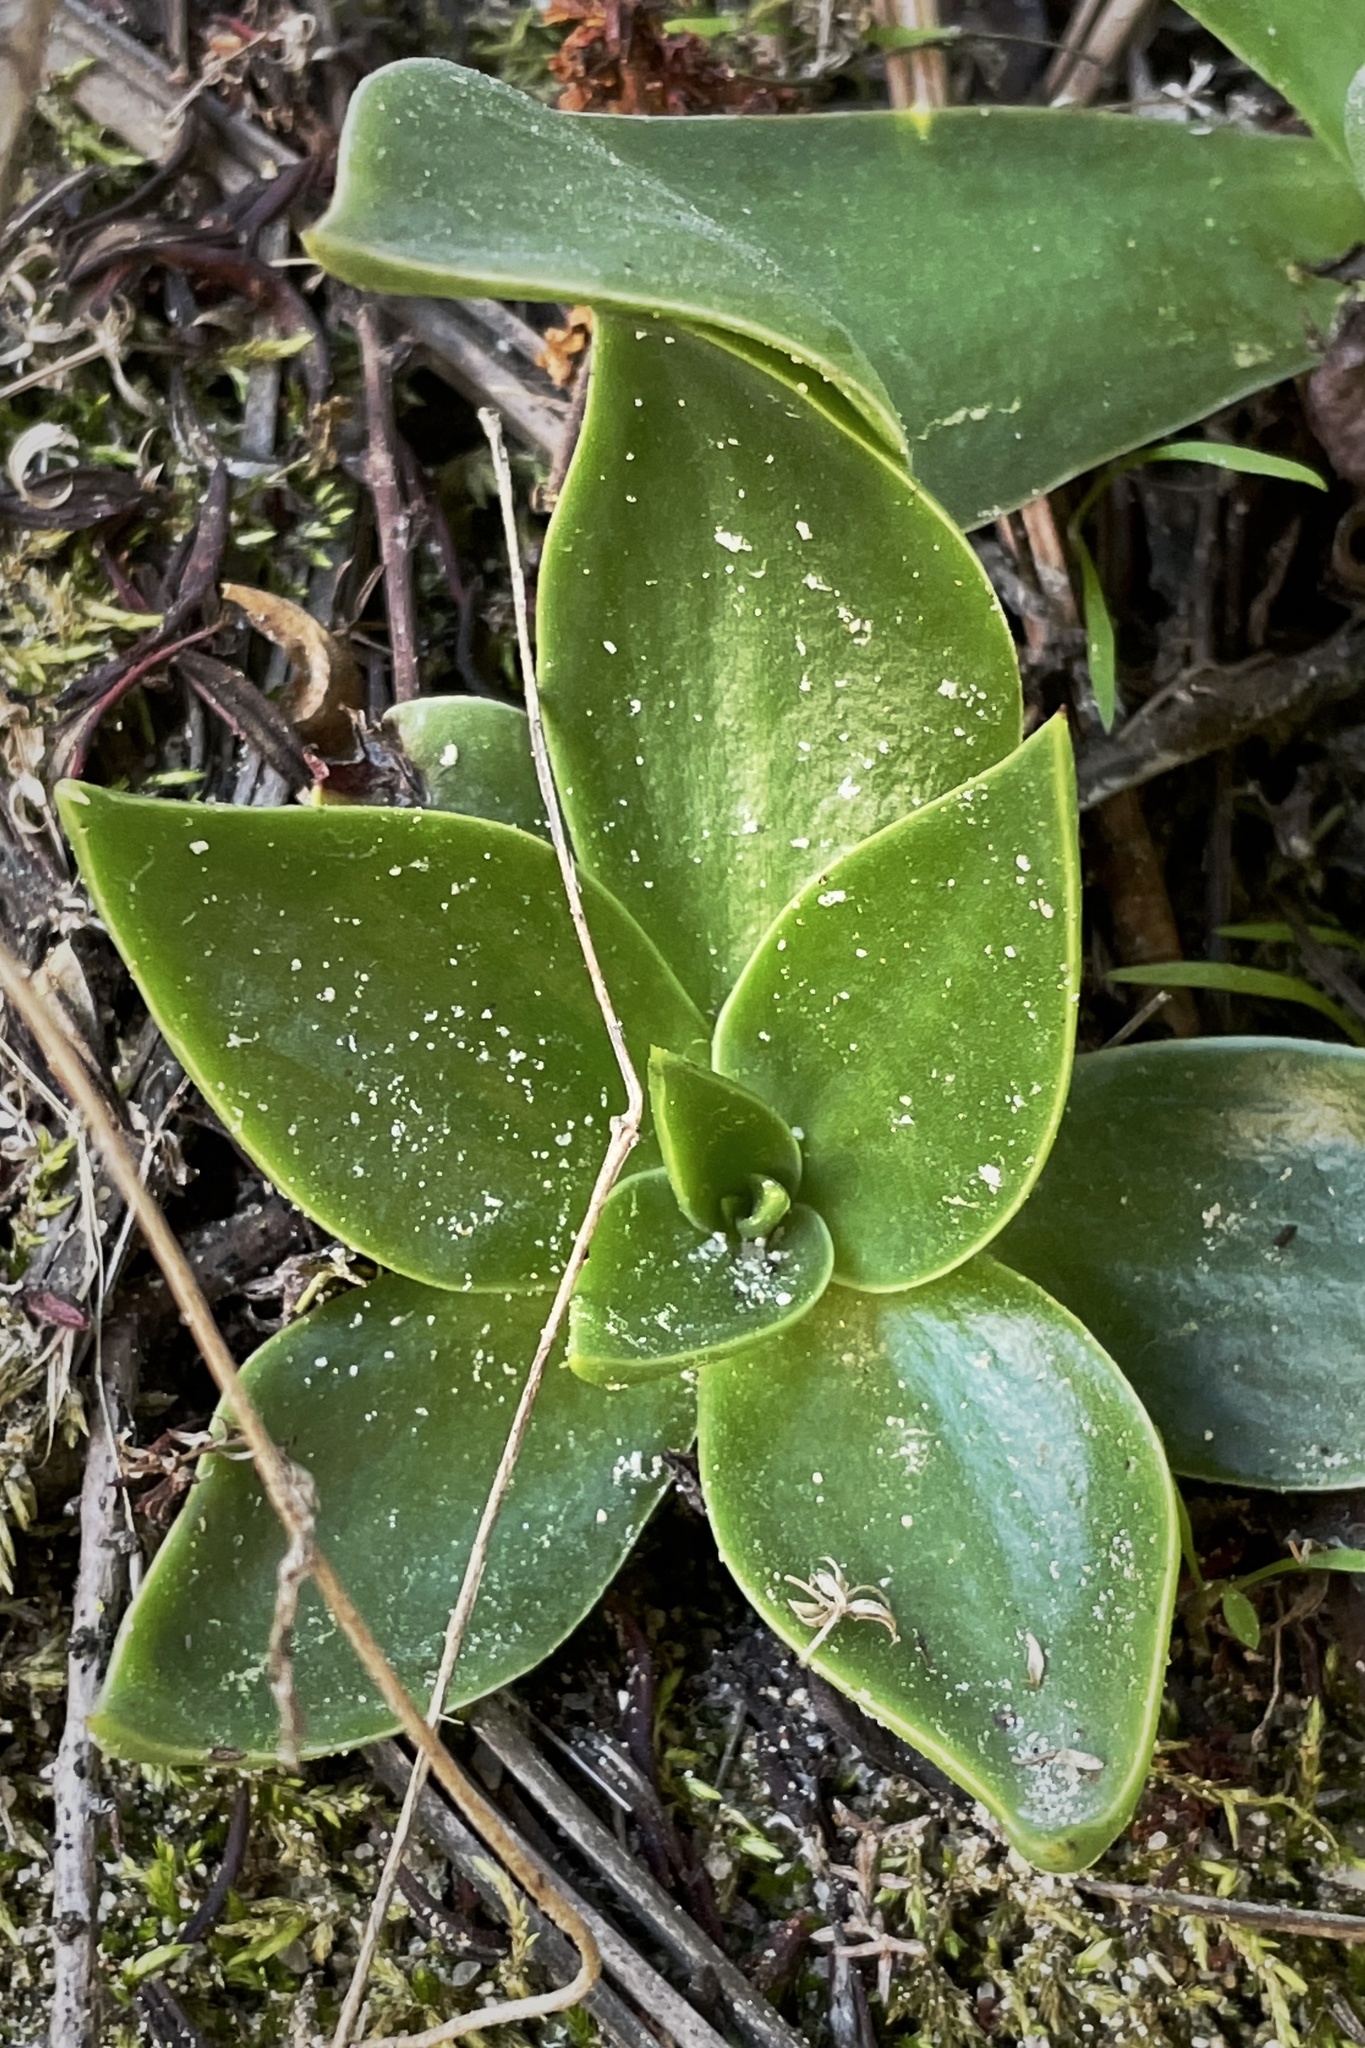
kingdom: Plantae
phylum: Tracheophyta
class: Magnoliopsida
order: Saxifragales
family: Crassulaceae
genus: Dudleya
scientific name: Dudleya lanceolata
